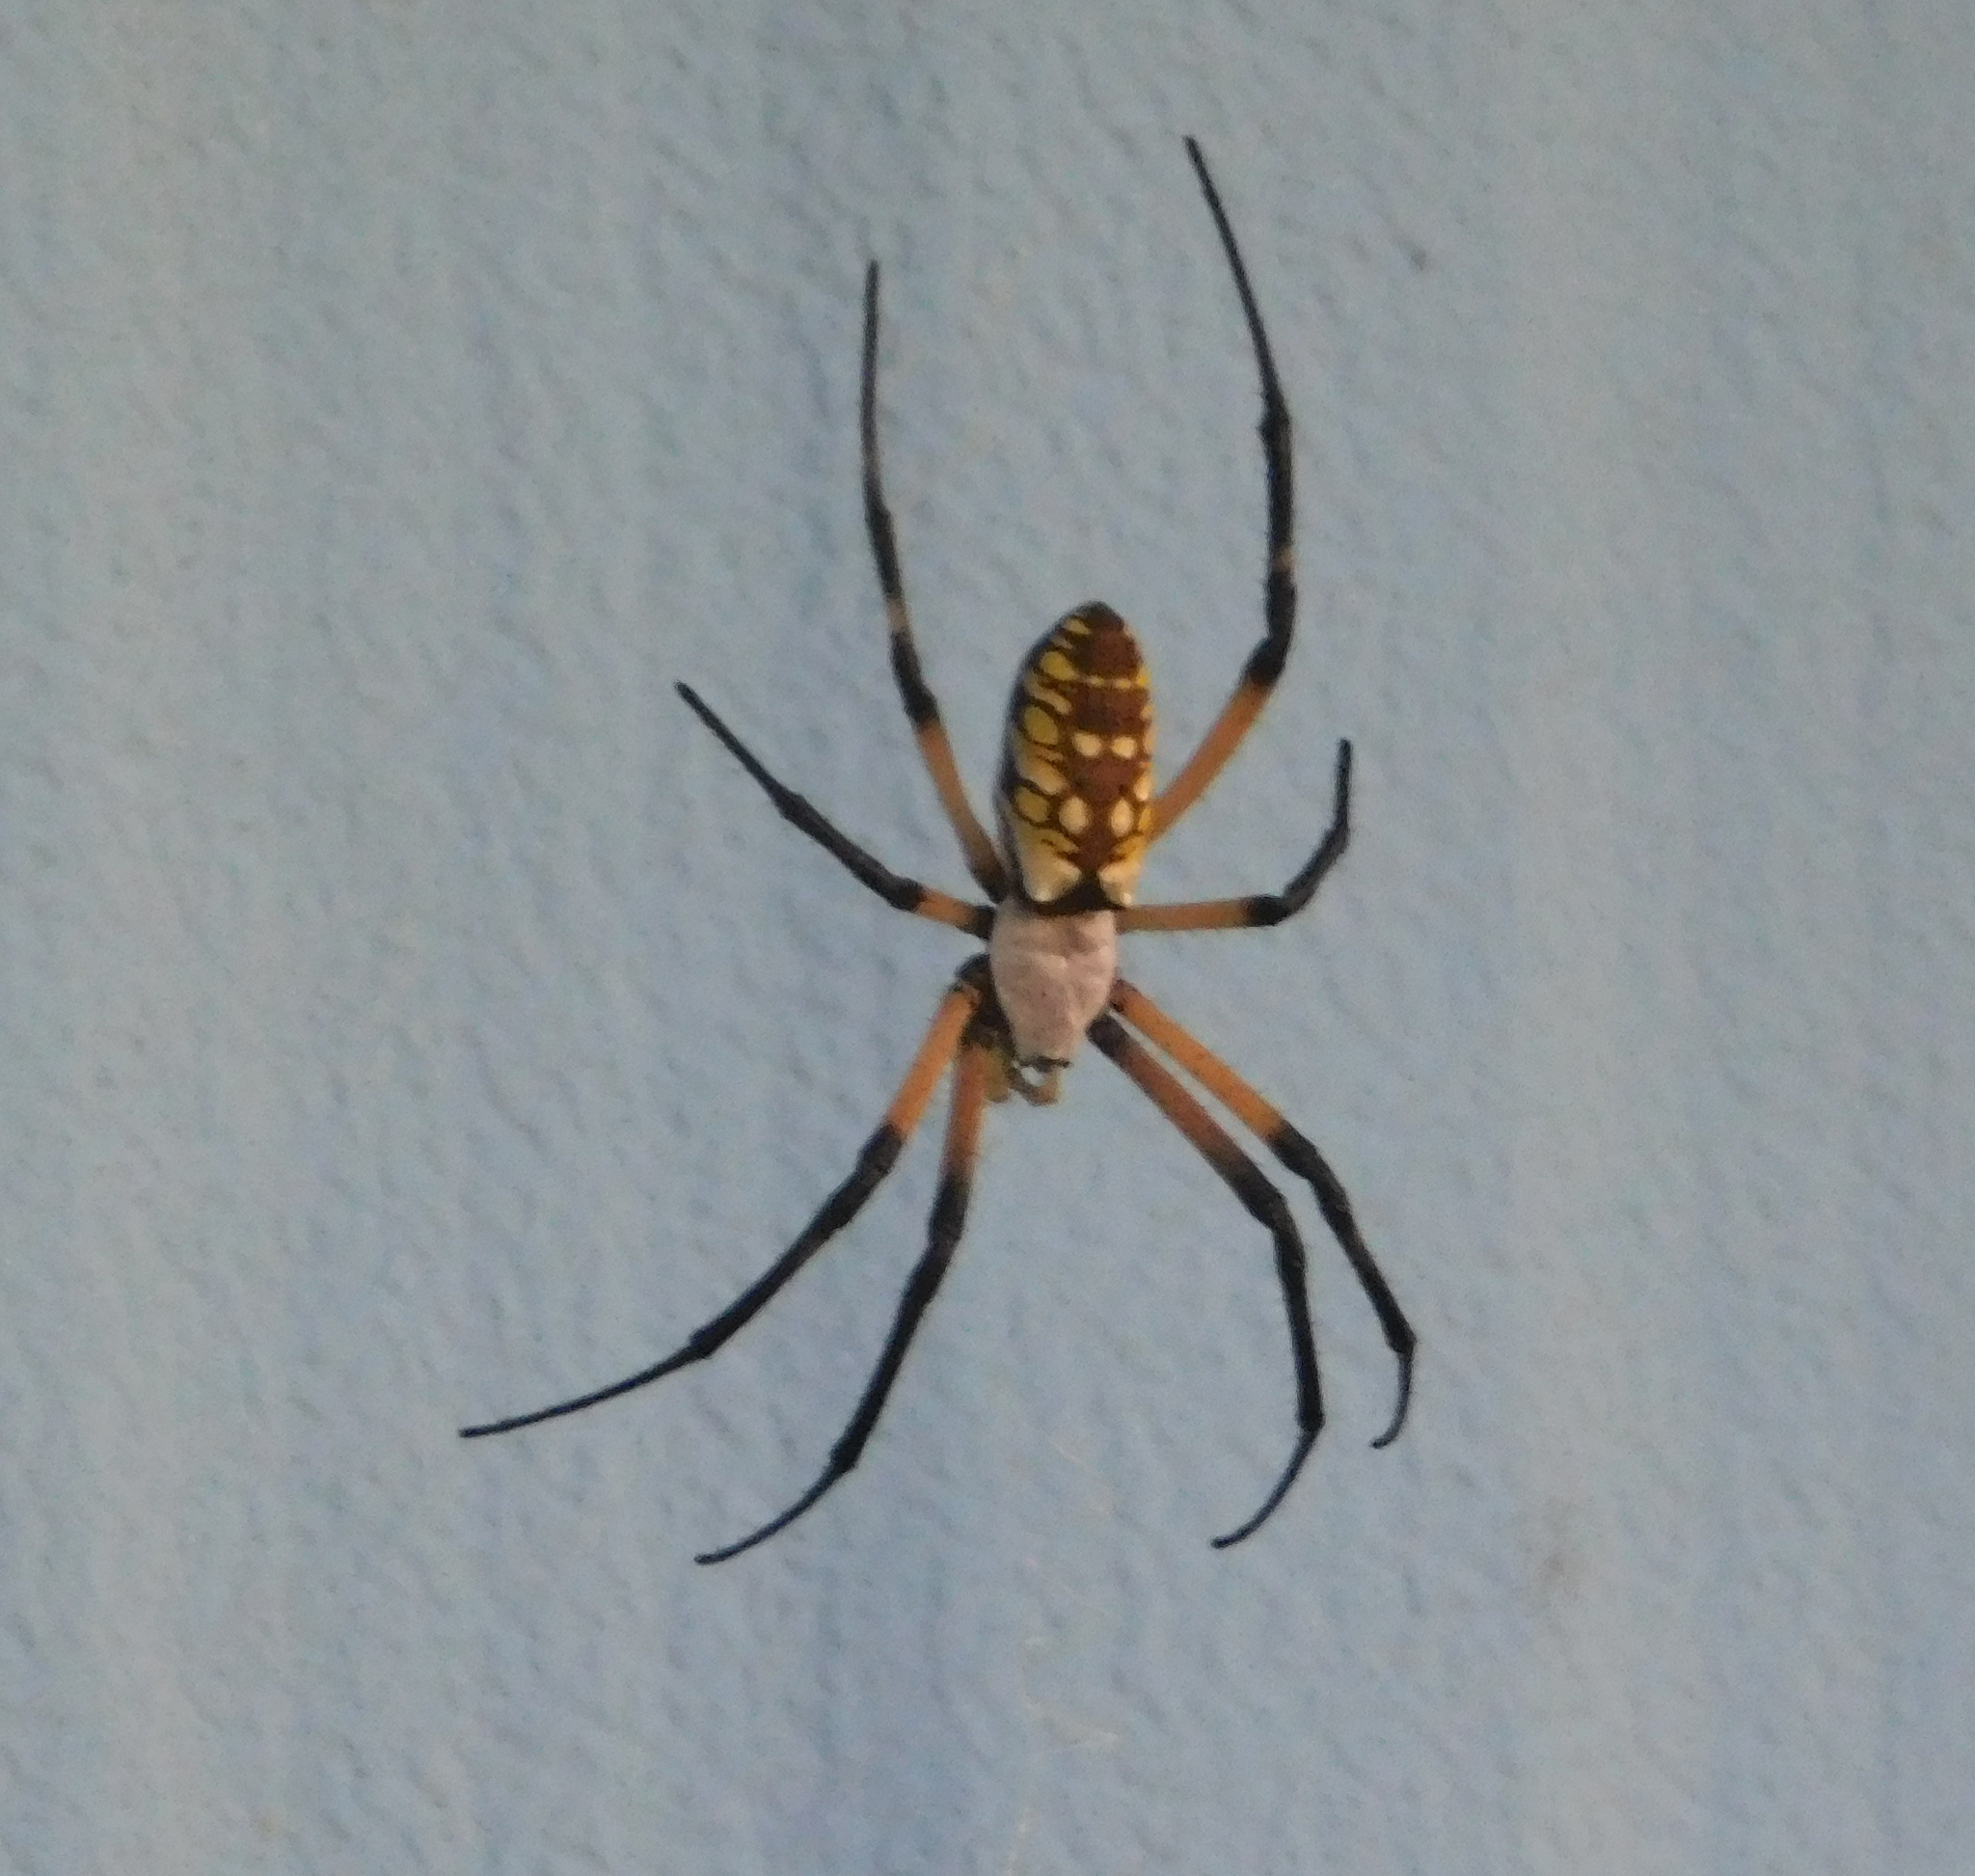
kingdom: Animalia
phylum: Arthropoda
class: Arachnida
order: Araneae
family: Araneidae
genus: Argiope
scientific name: Argiope aurantia
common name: Orb weavers
